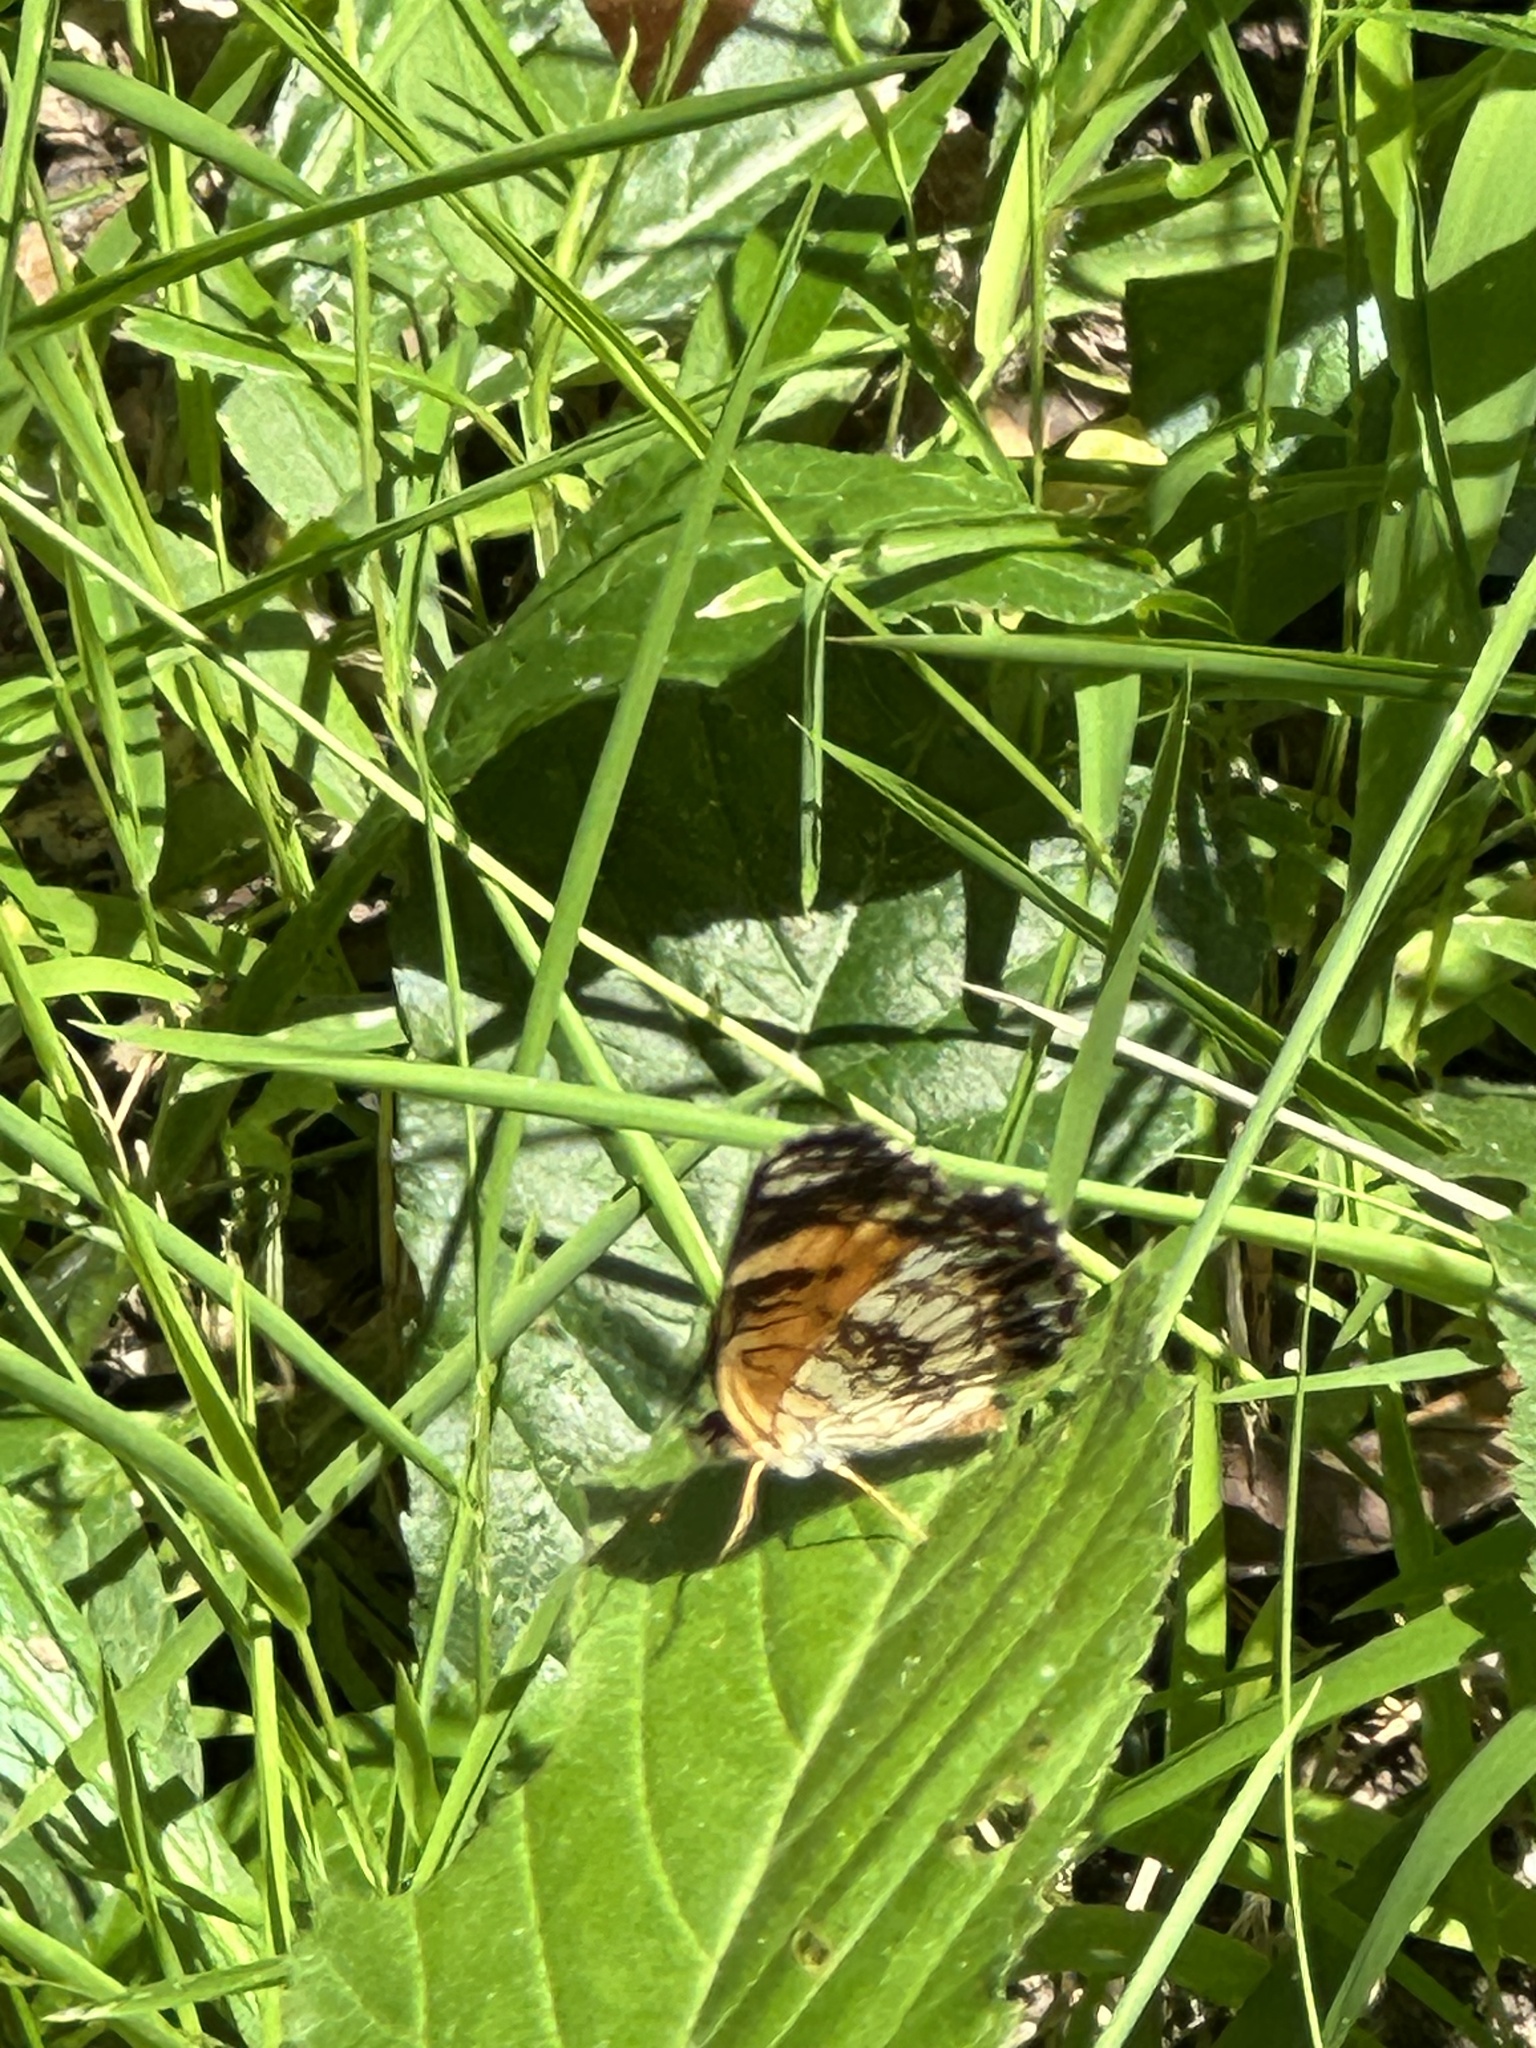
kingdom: Animalia
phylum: Arthropoda
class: Insecta
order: Lepidoptera
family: Nymphalidae
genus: Chlosyne
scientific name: Chlosyne nycteis
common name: Silvery checkerspot
